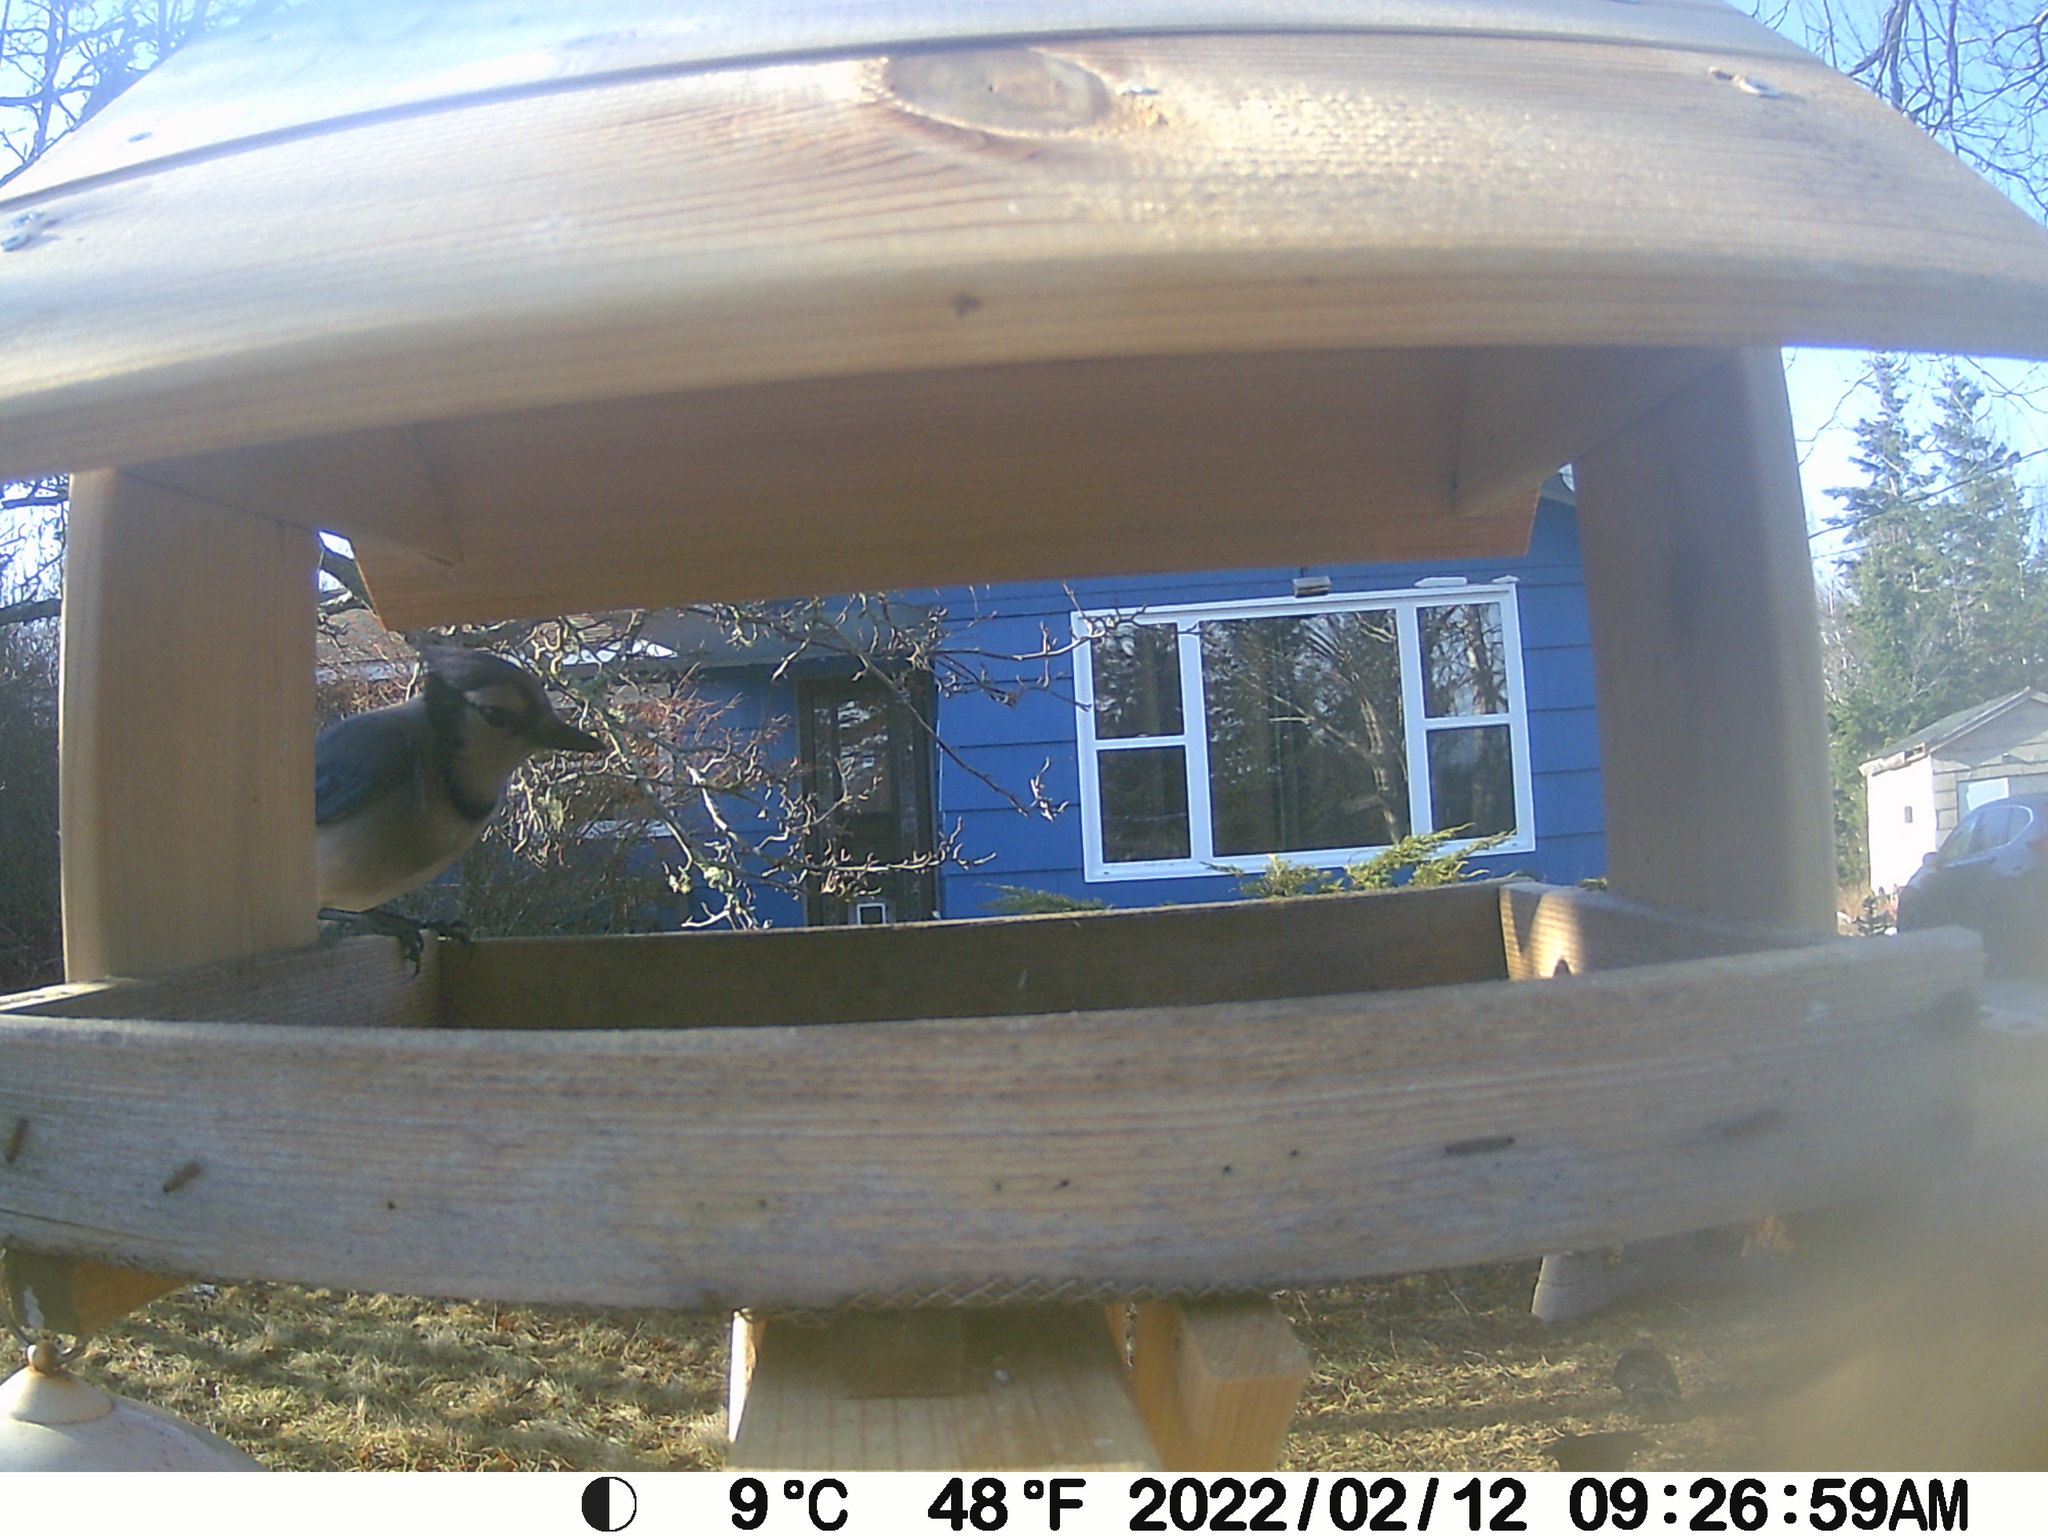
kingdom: Animalia
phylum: Chordata
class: Aves
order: Passeriformes
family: Corvidae
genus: Cyanocitta
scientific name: Cyanocitta cristata
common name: Blue jay
